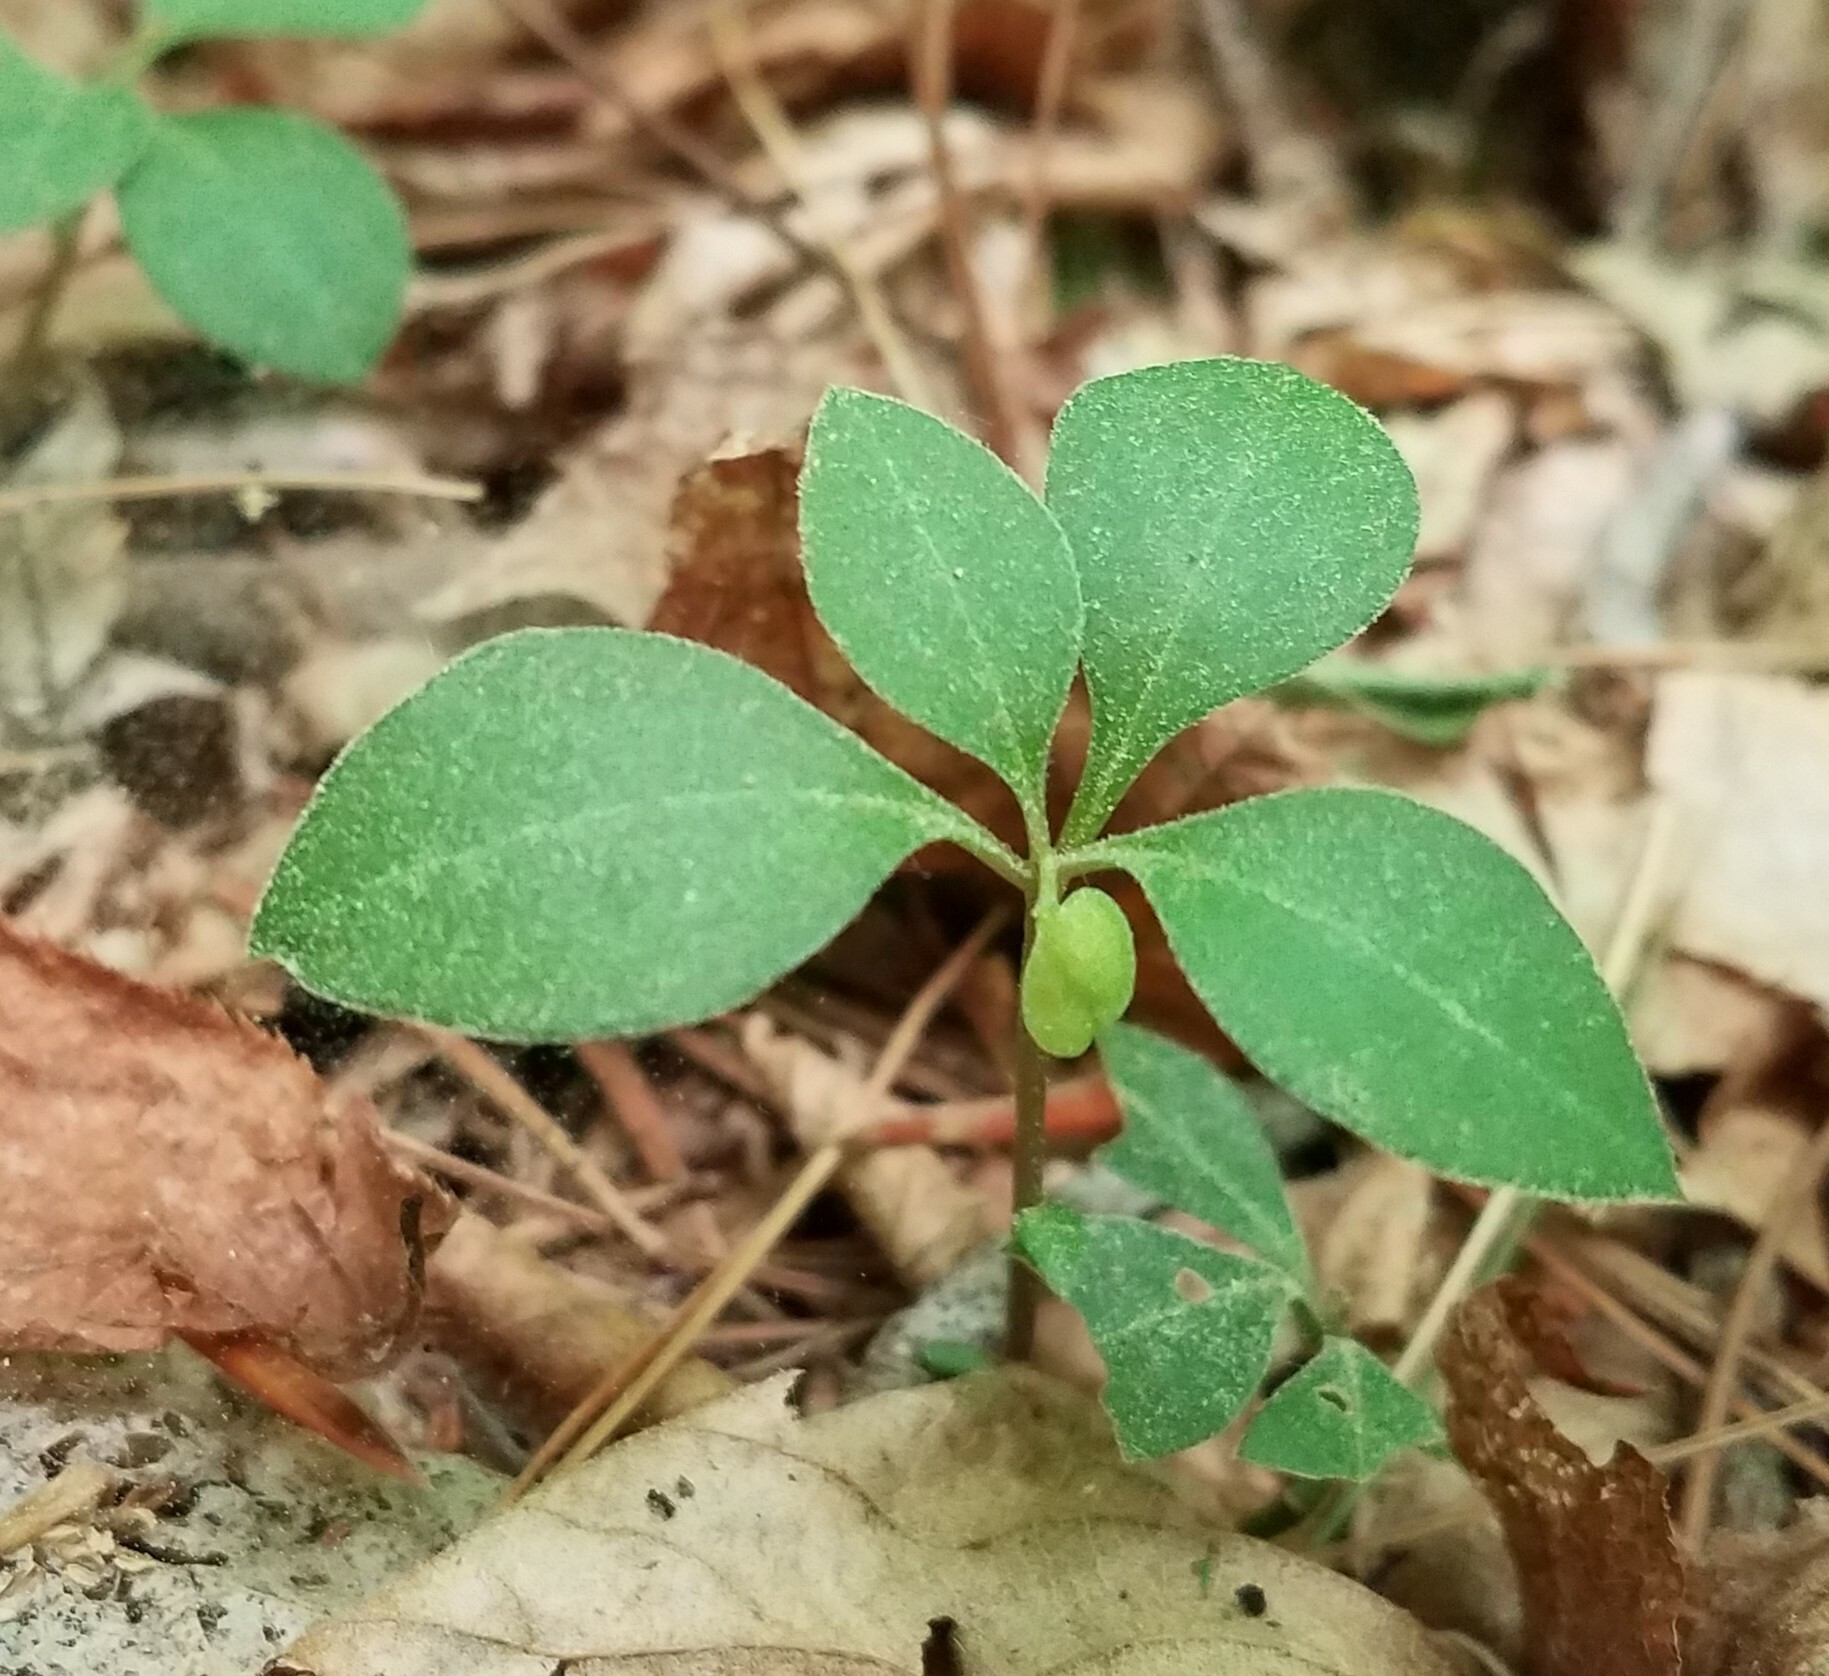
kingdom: Plantae
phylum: Tracheophyta
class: Magnoliopsida
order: Fabales
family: Polygalaceae
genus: Polygaloides
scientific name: Polygaloides paucifolia
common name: Bird-on-the-wing
